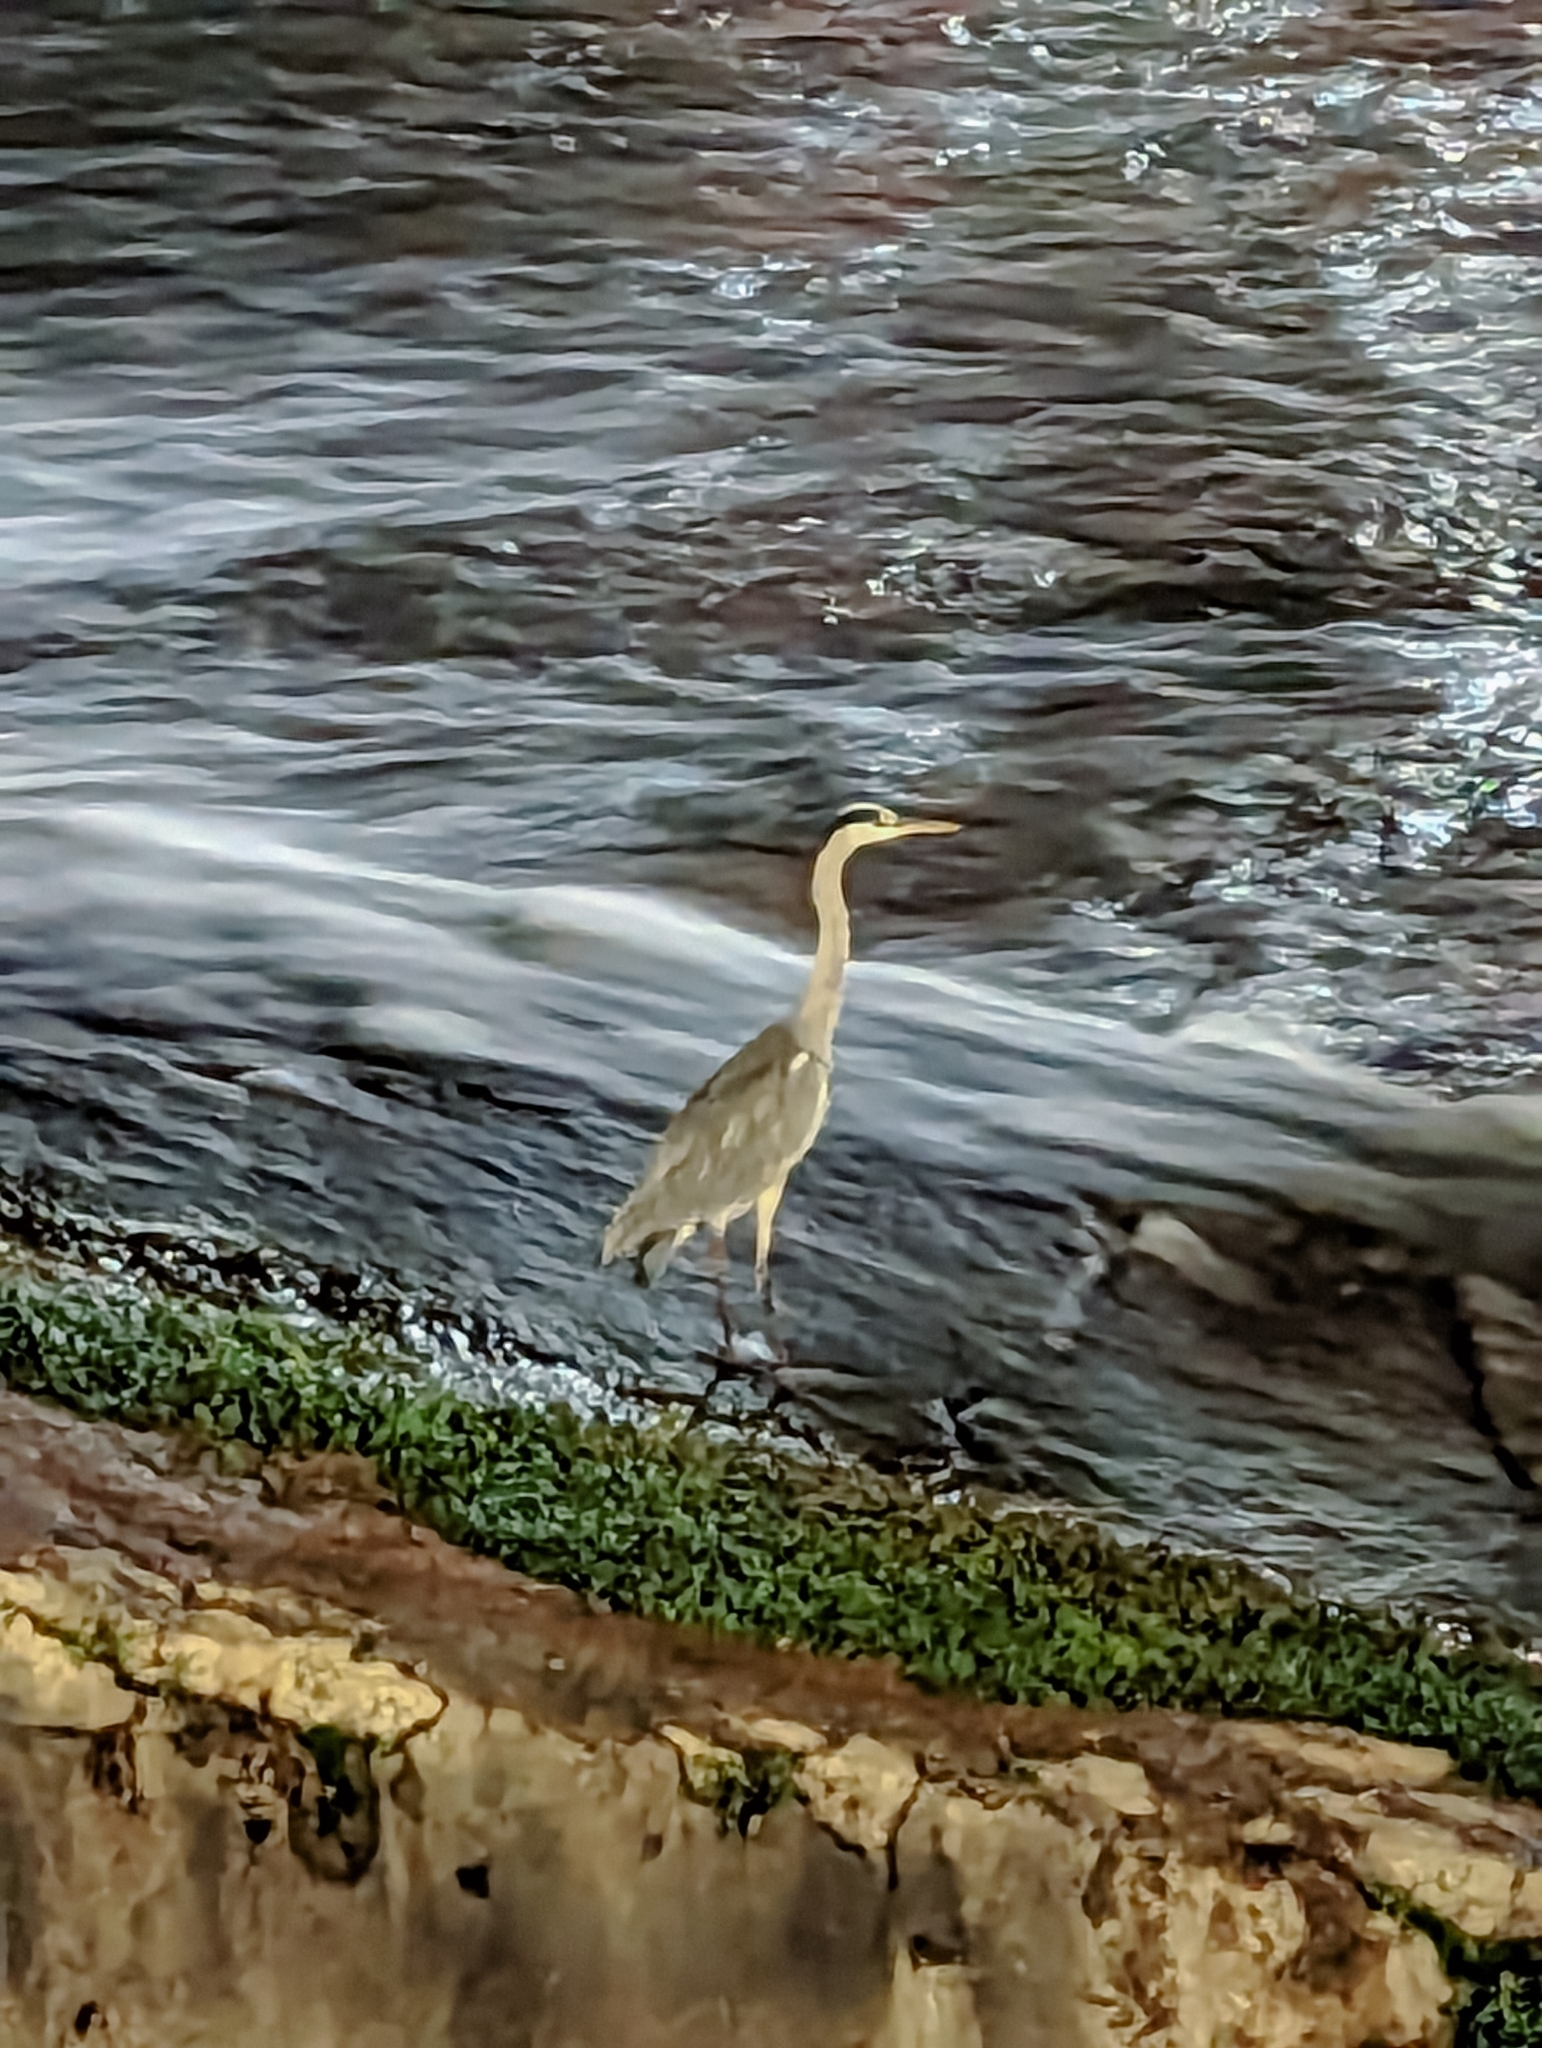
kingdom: Animalia
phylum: Chordata
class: Aves
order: Pelecaniformes
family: Ardeidae
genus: Ardea
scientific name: Ardea cinerea
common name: Grey heron
